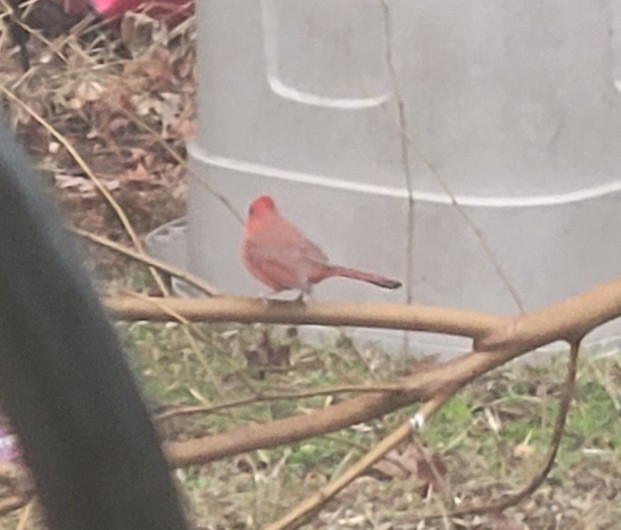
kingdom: Animalia
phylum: Chordata
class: Aves
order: Passeriformes
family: Cardinalidae
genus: Cardinalis
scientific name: Cardinalis cardinalis
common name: Northern cardinal
